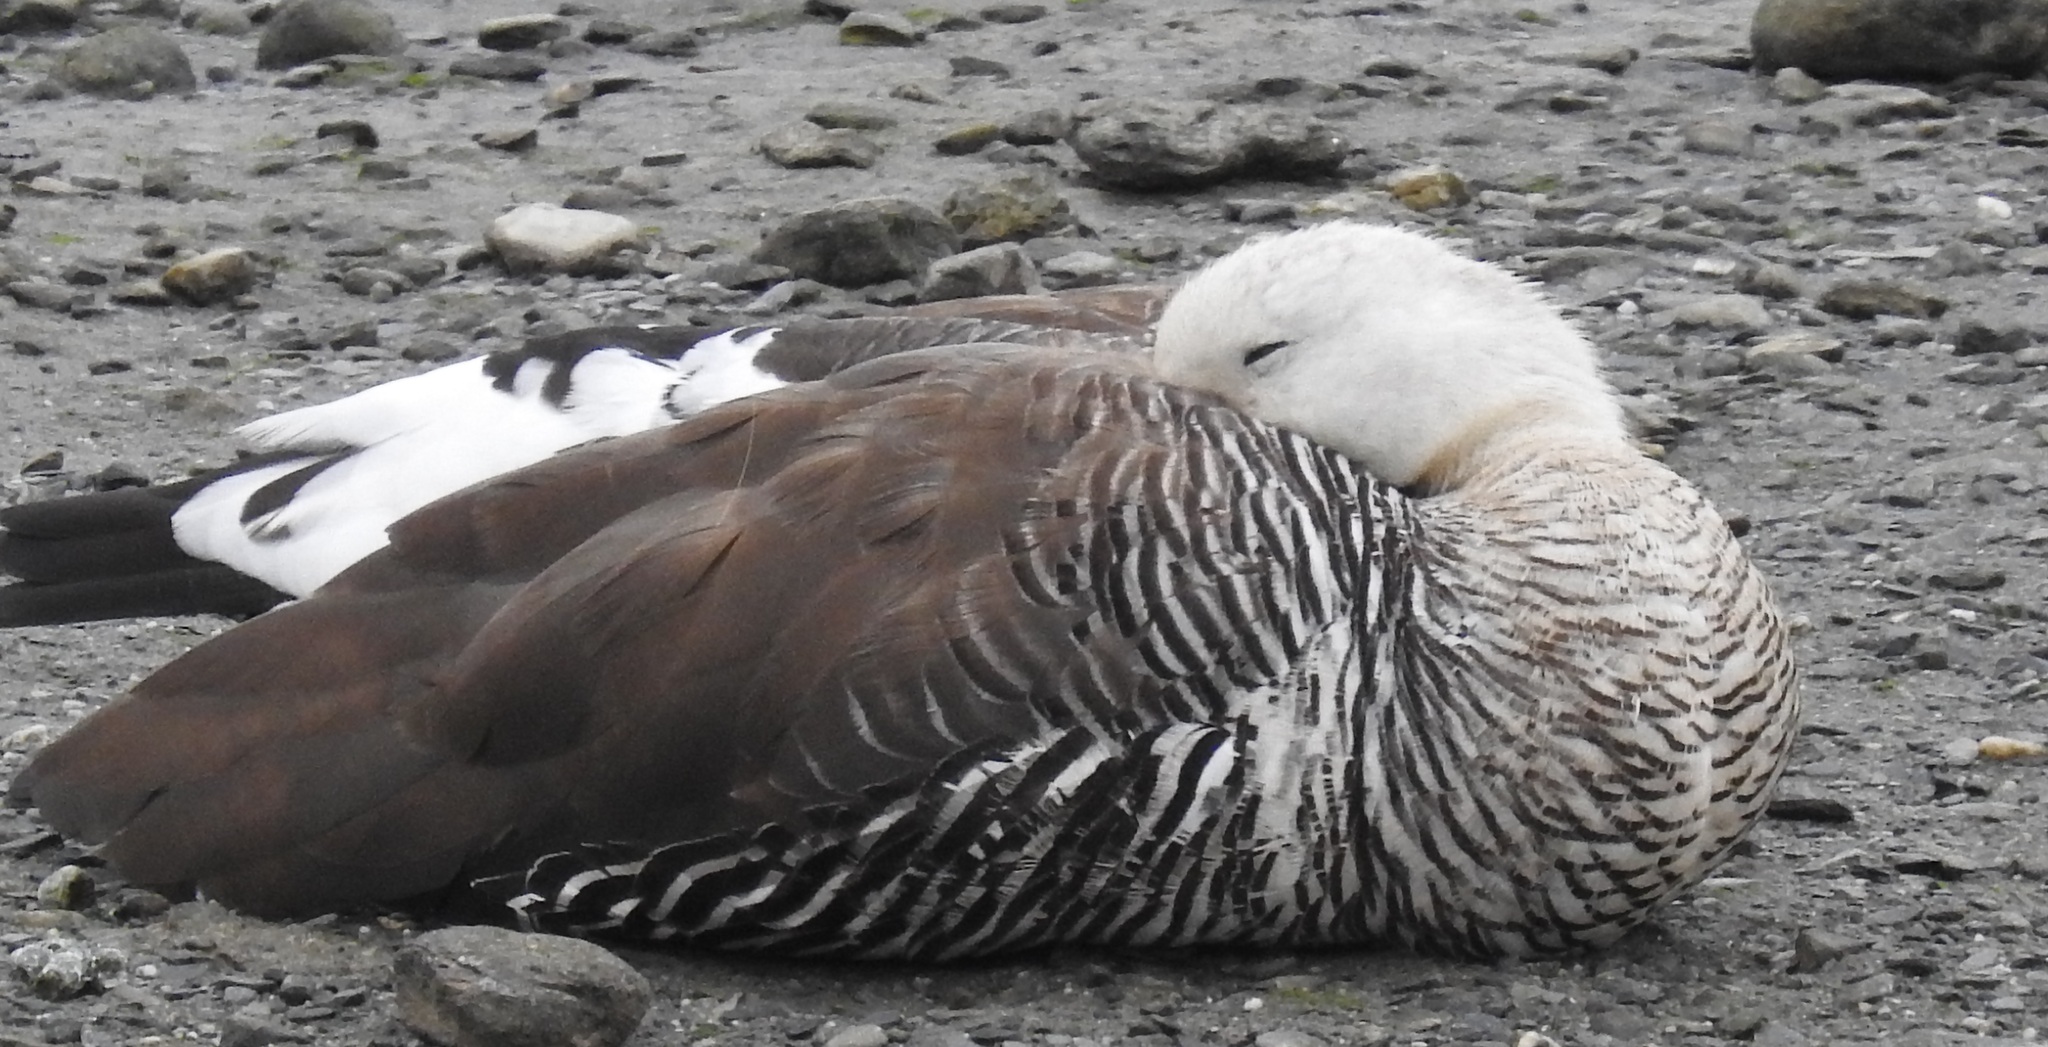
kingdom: Animalia
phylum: Chordata
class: Aves
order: Anseriformes
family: Anatidae
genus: Chloephaga
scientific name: Chloephaga picta
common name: Upland goose
